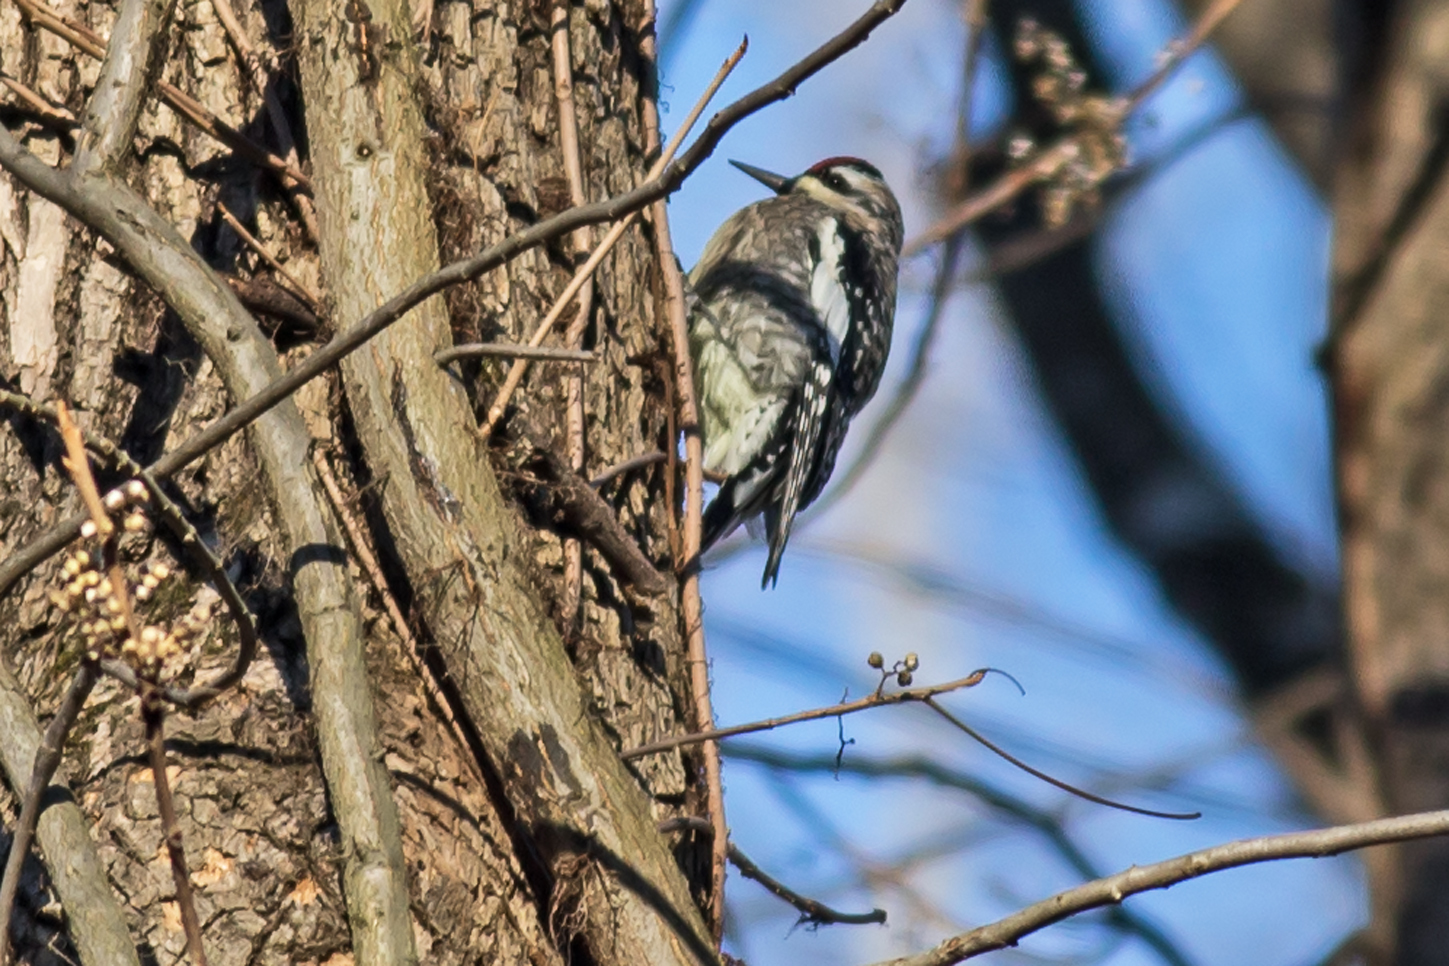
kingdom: Animalia
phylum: Chordata
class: Aves
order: Piciformes
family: Picidae
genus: Sphyrapicus
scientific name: Sphyrapicus varius
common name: Yellow-bellied sapsucker
